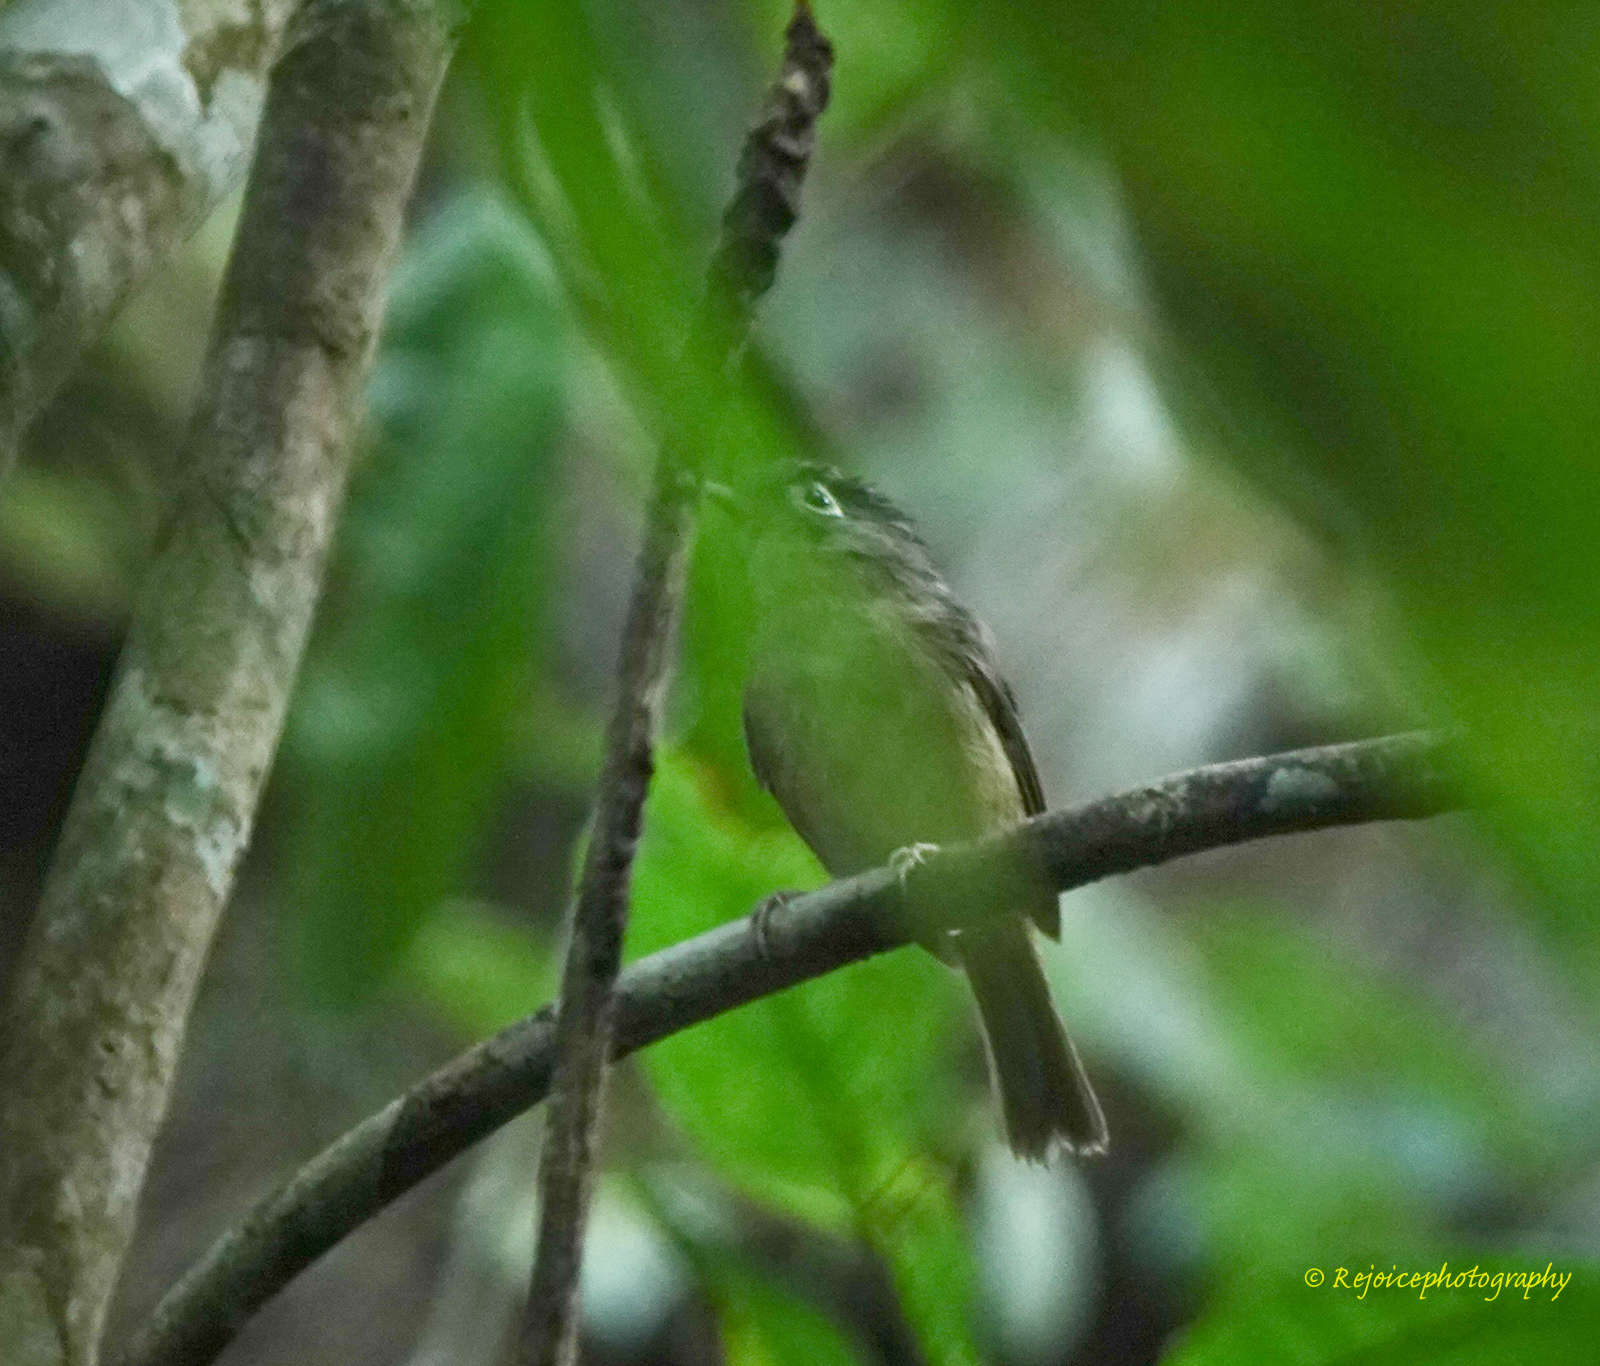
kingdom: Animalia
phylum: Chordata
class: Aves
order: Passeriformes
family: Pellorneidae
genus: Alcippe
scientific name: Alcippe nipalensis
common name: Nepal fulvetta
